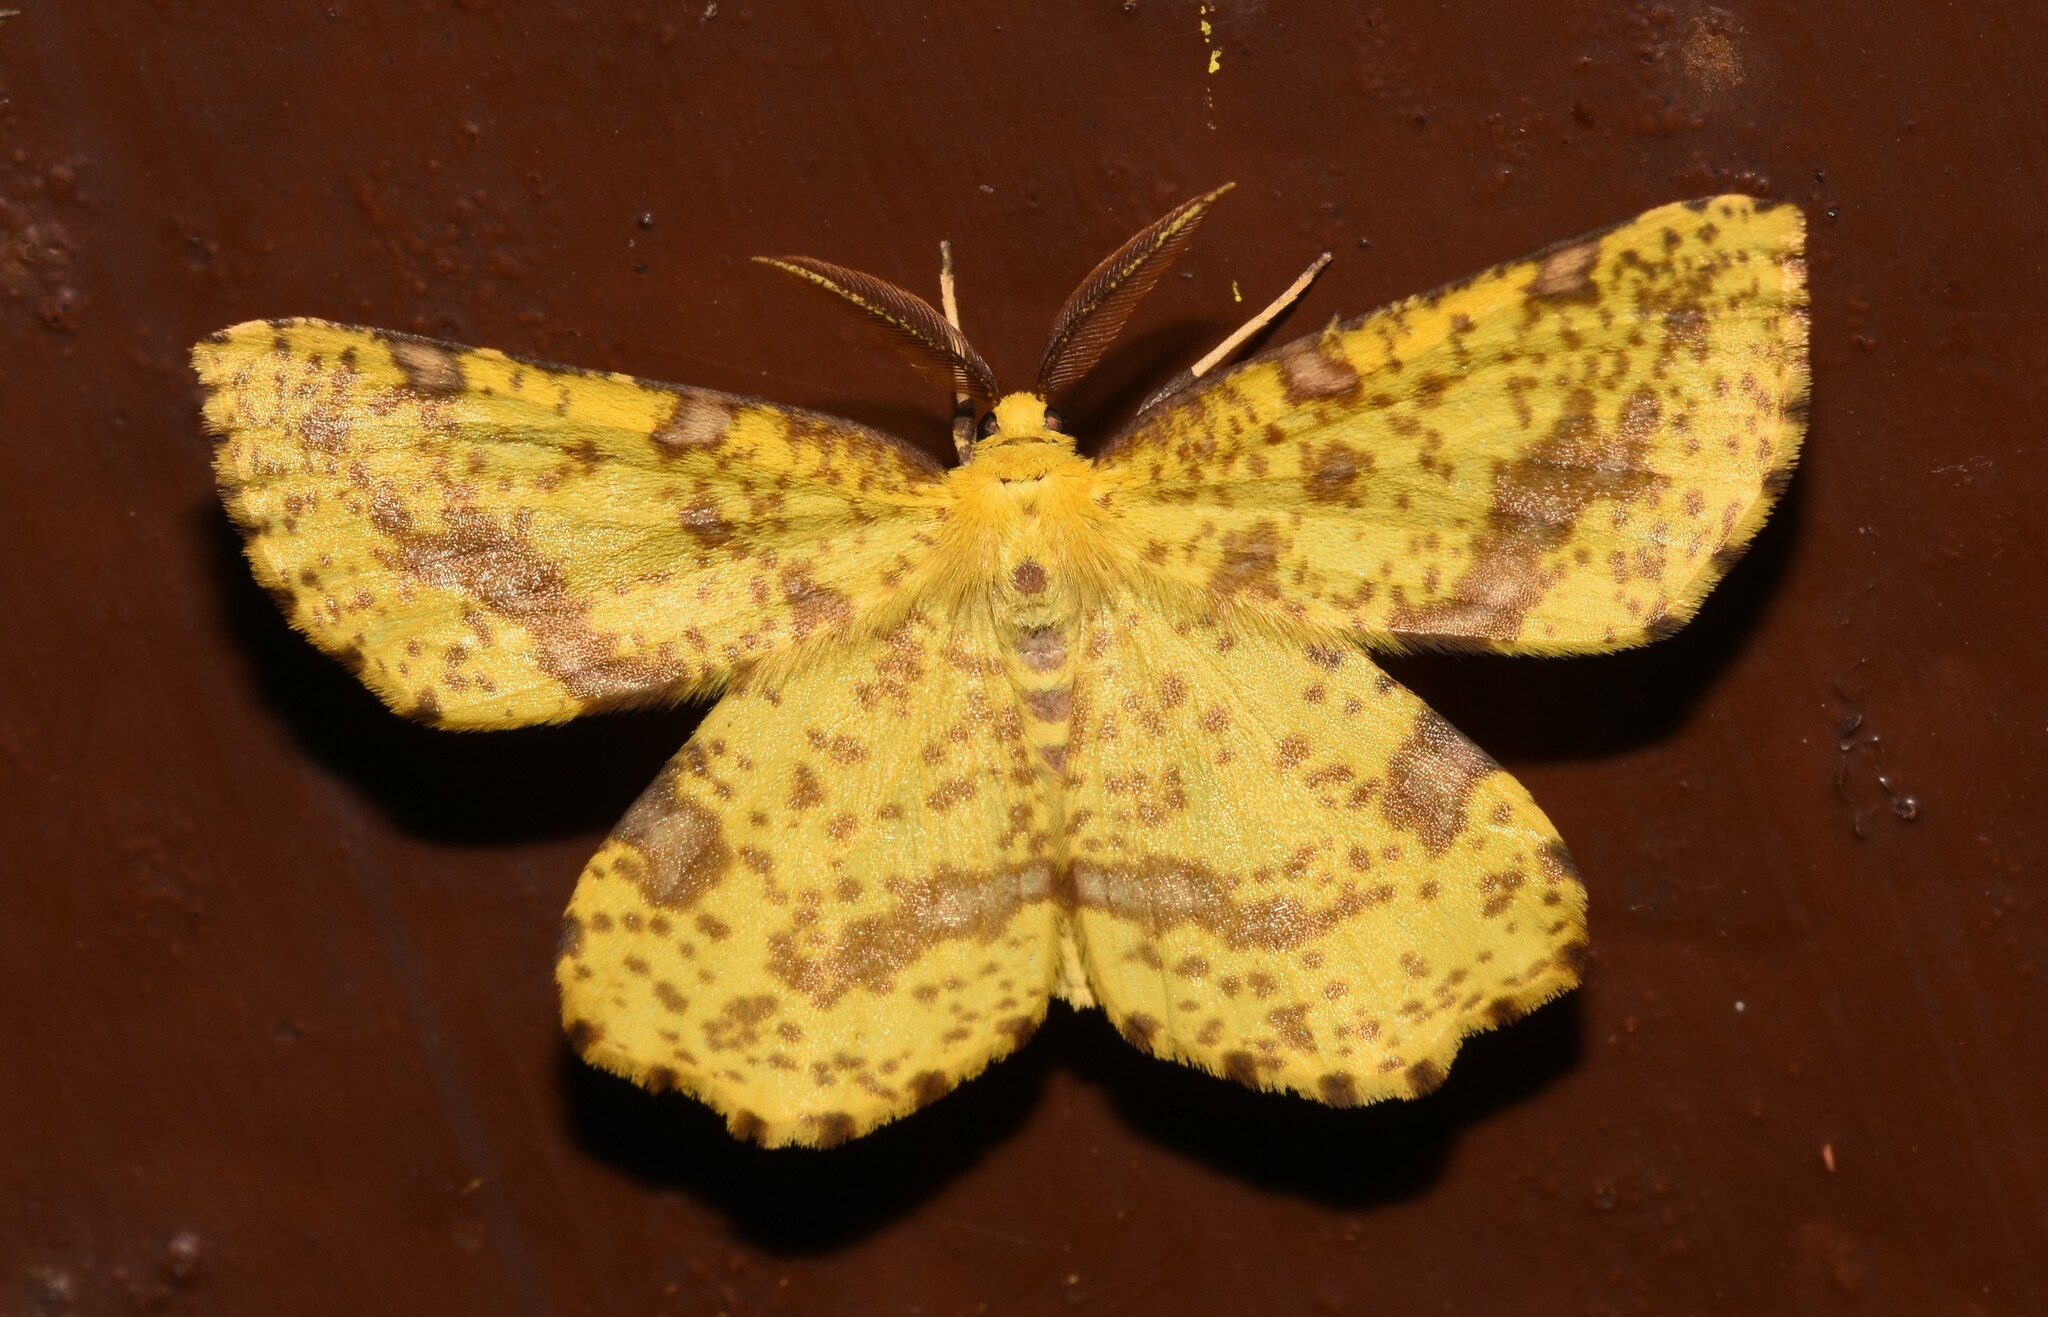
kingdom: Animalia
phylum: Arthropoda
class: Insecta
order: Lepidoptera
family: Geometridae
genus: Xanthotype
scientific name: Xanthotype
